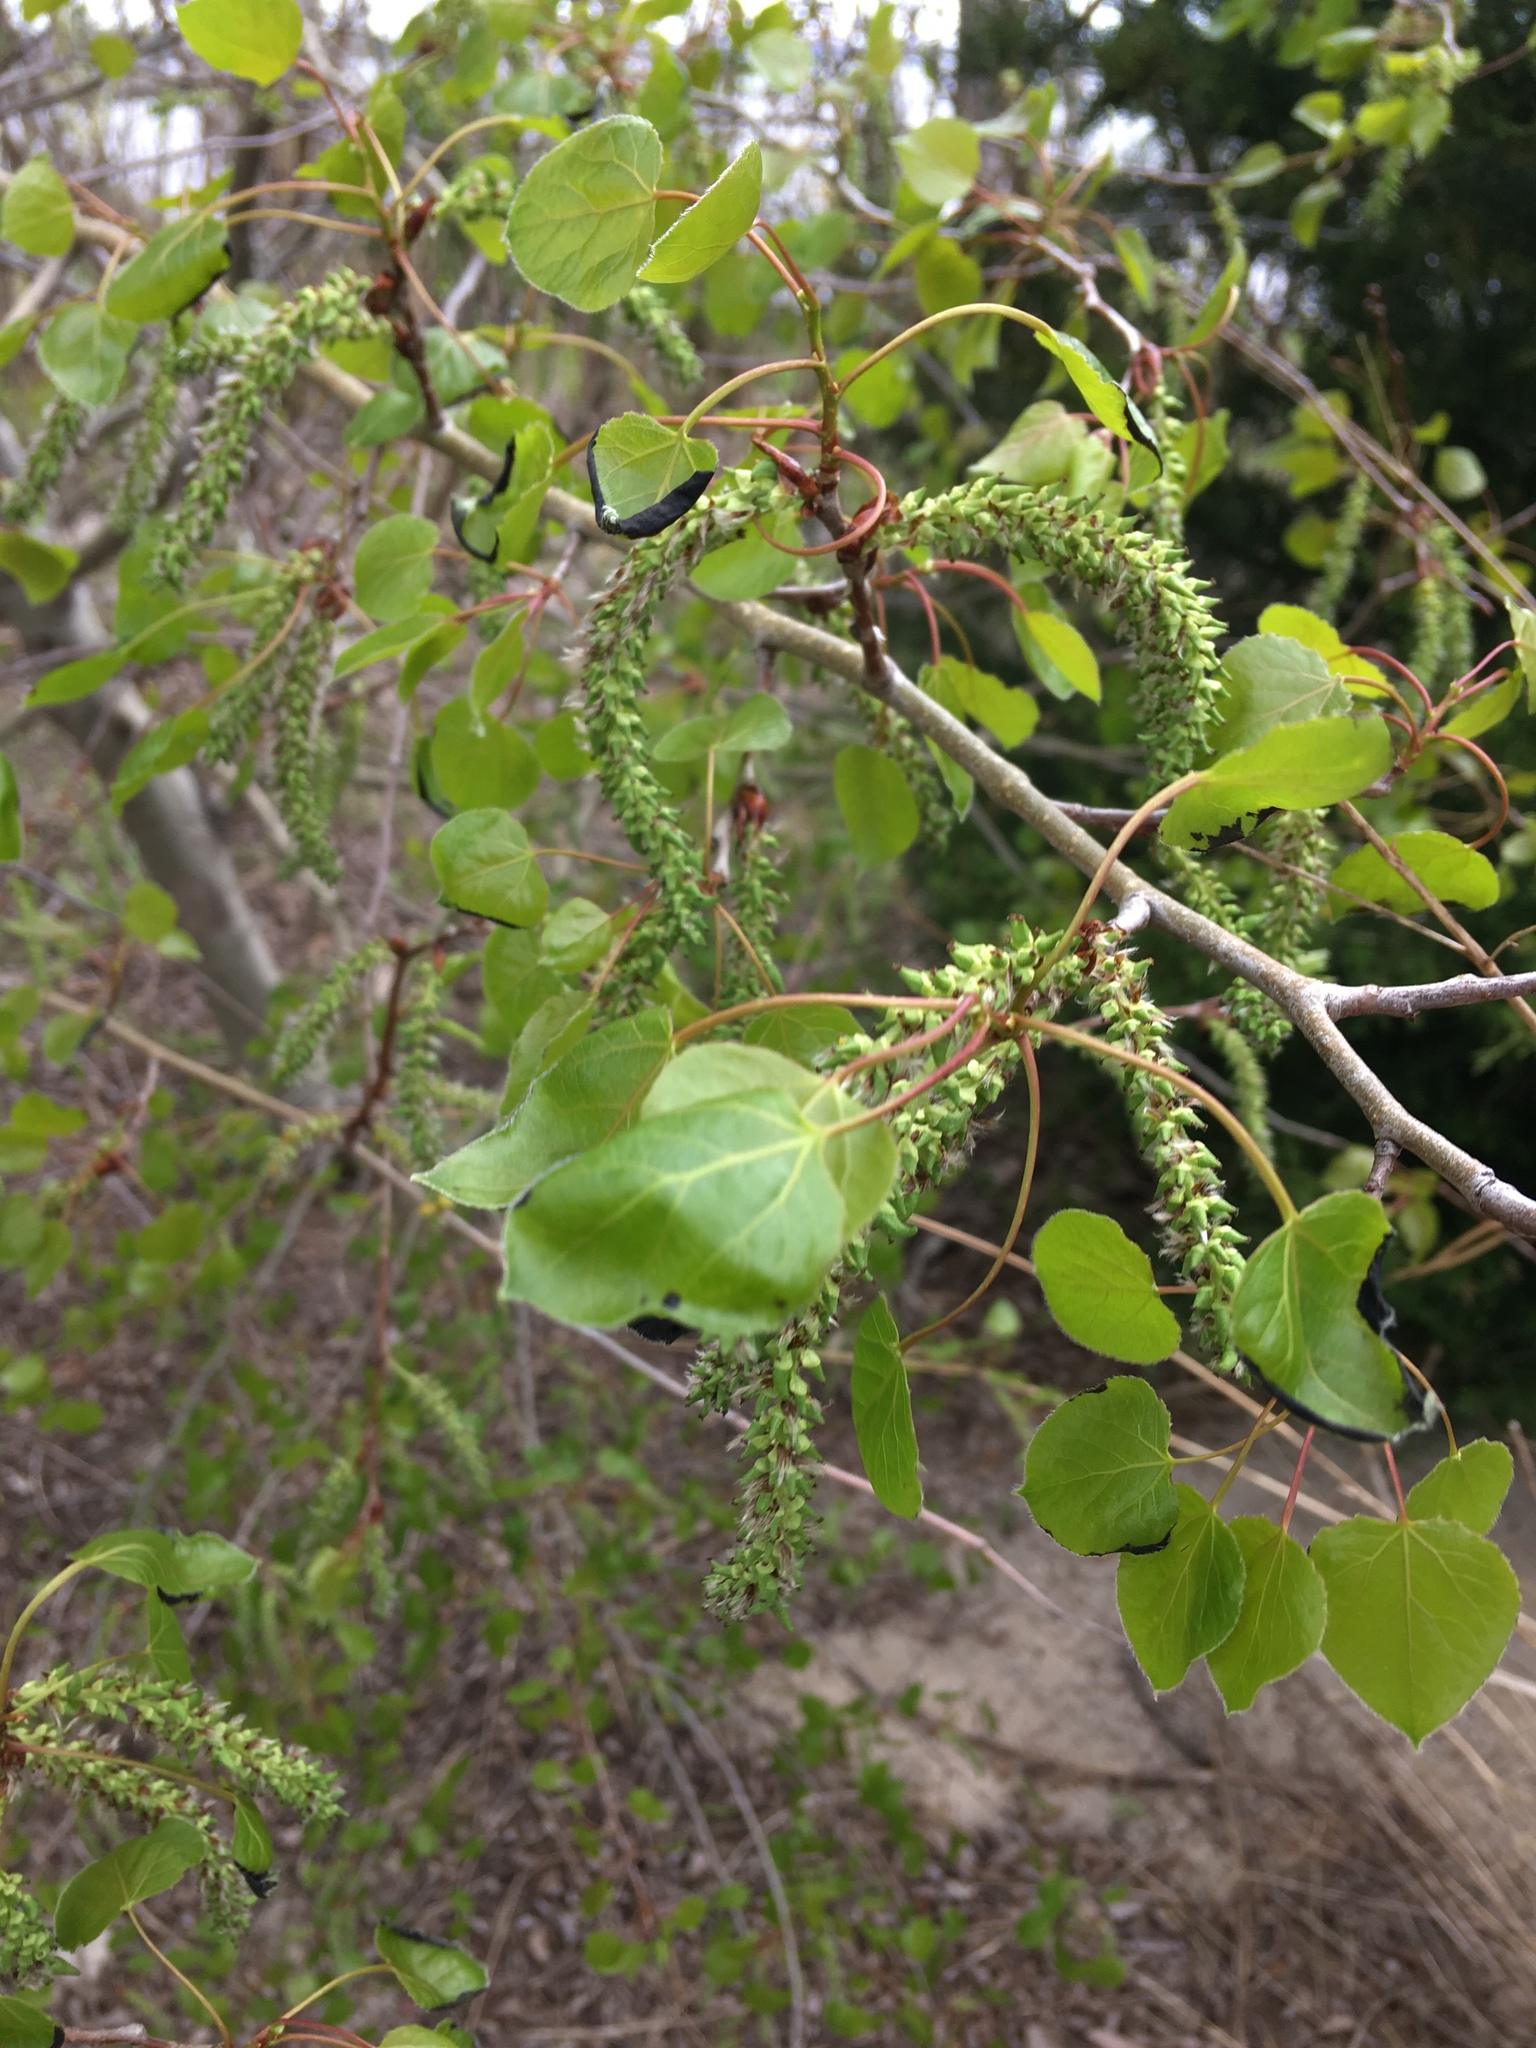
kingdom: Plantae
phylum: Tracheophyta
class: Magnoliopsida
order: Malpighiales
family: Salicaceae
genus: Populus
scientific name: Populus tremuloides
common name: Quaking aspen
